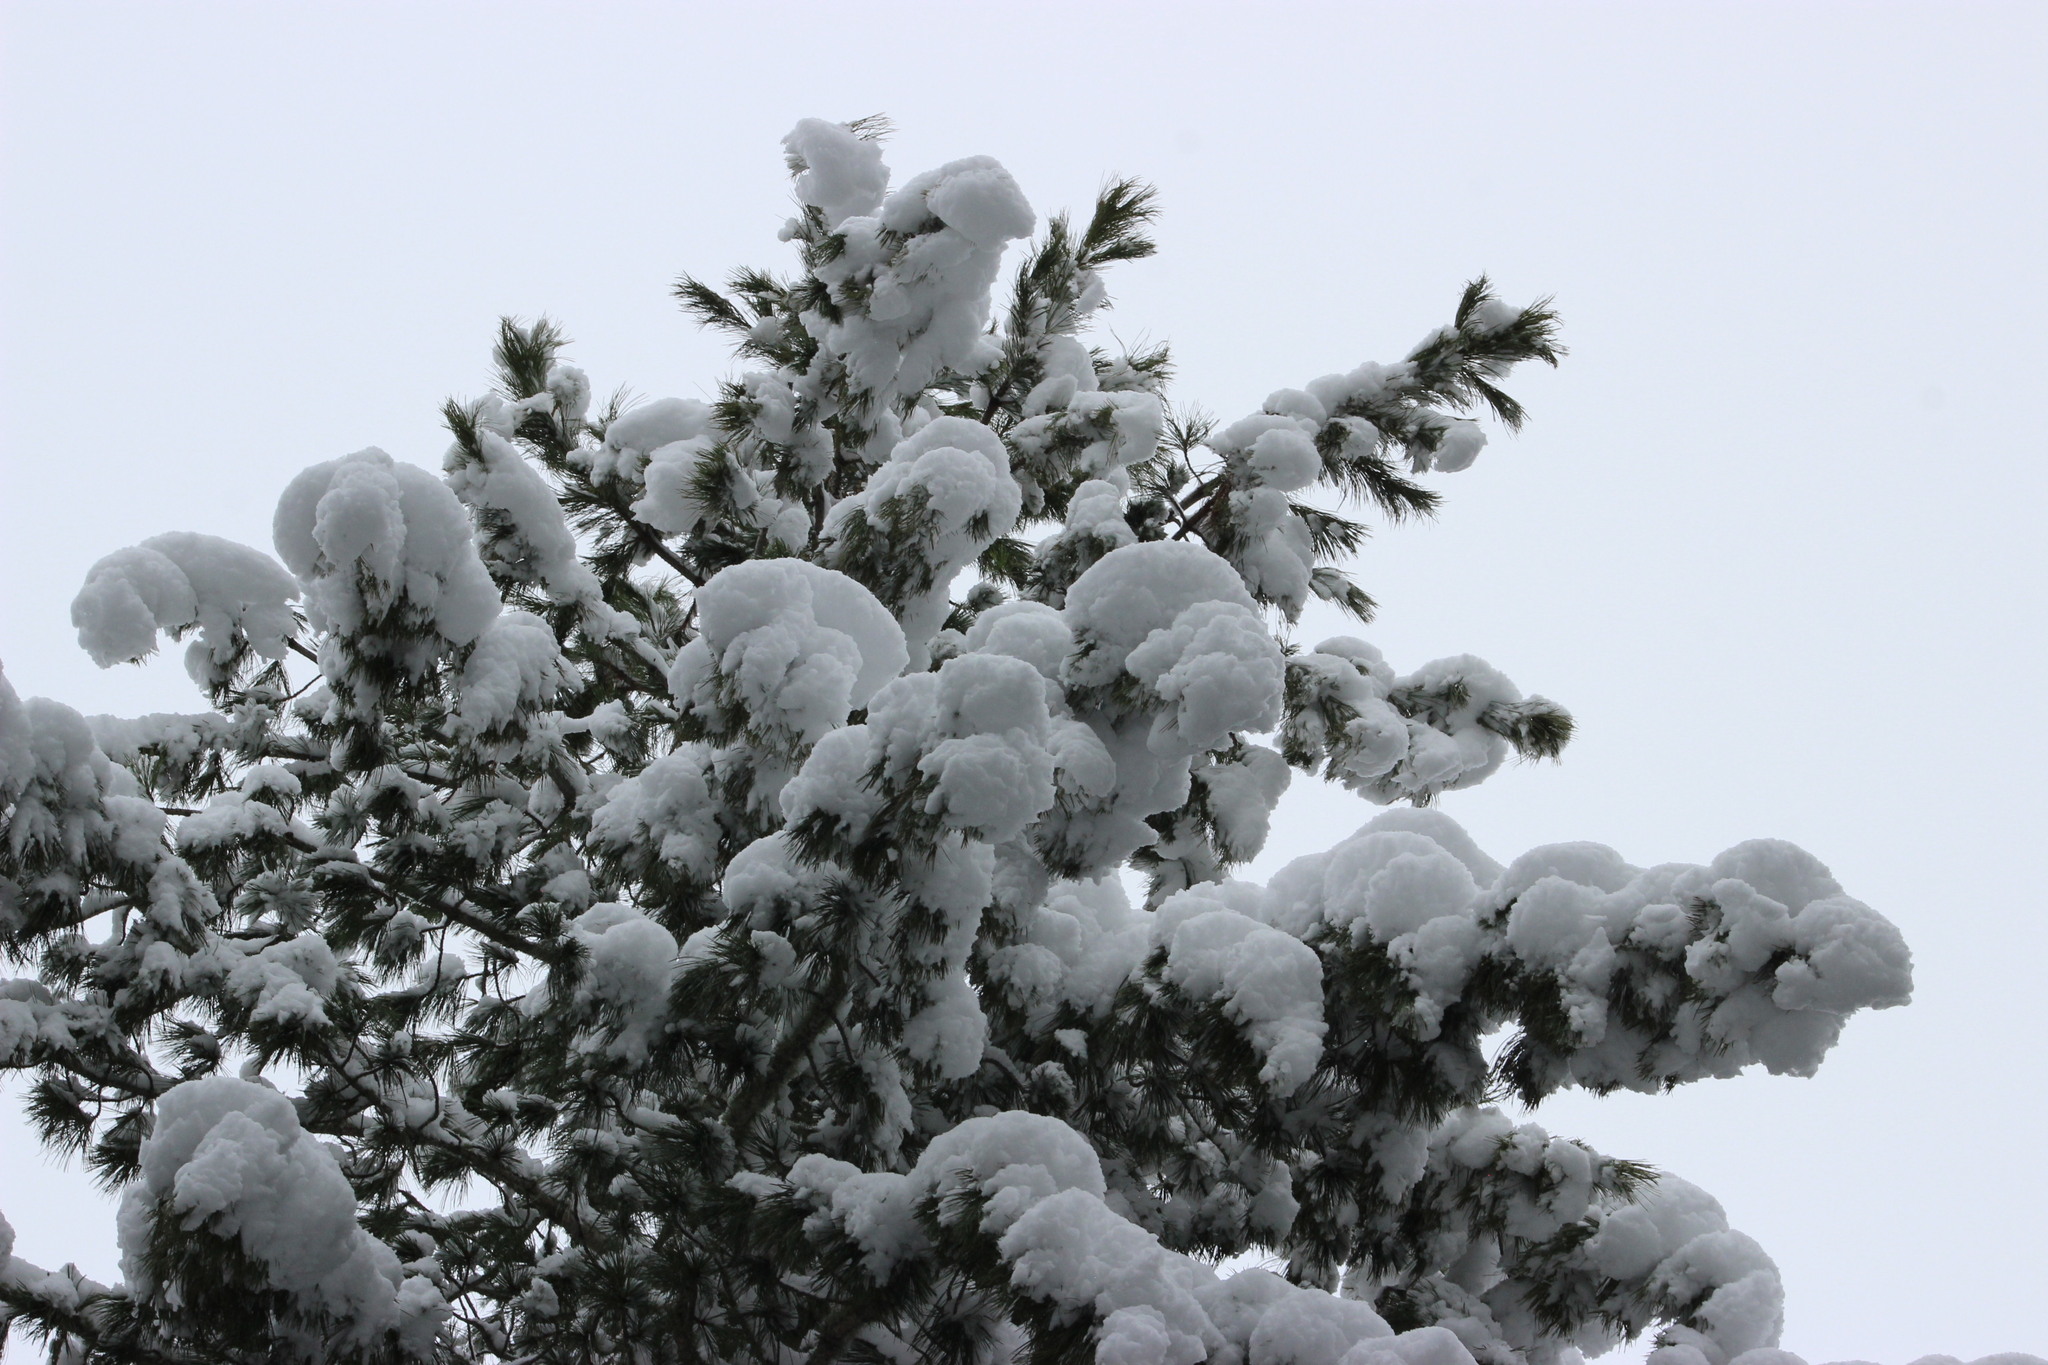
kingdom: Plantae
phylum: Tracheophyta
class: Pinopsida
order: Pinales
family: Pinaceae
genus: Pinus
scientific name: Pinus sibirica
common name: Siberian pine
